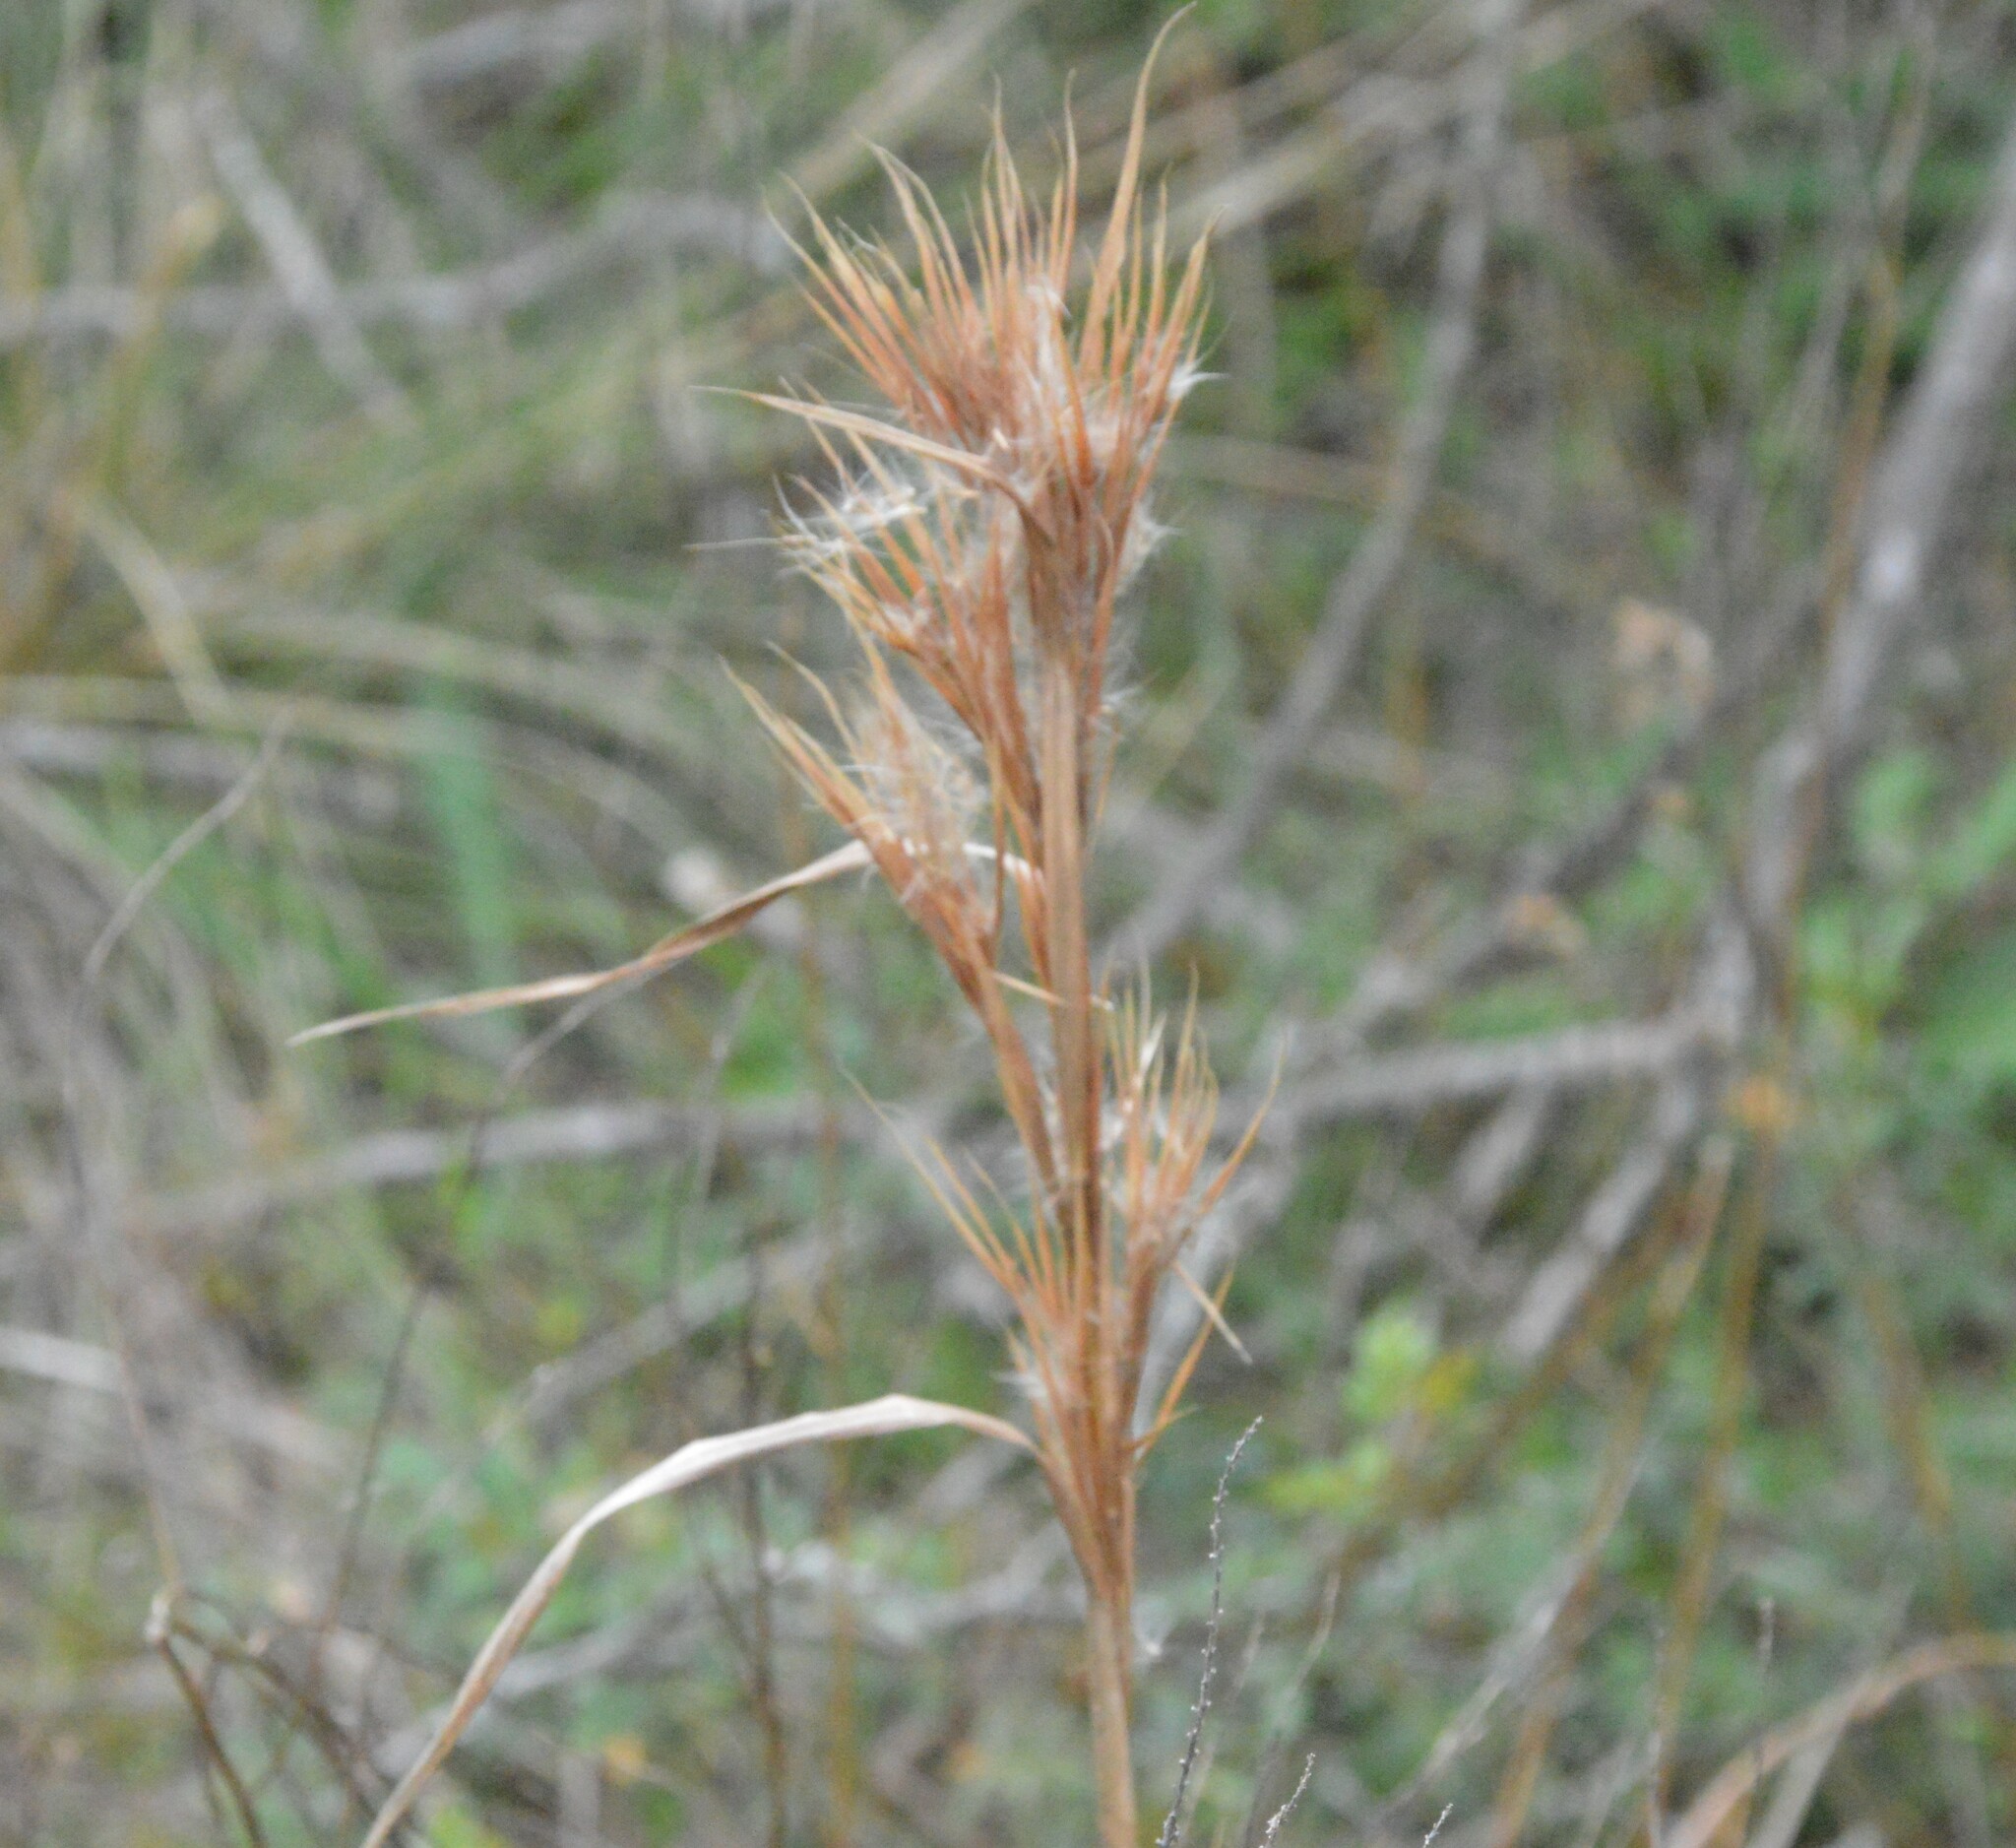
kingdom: Plantae
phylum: Tracheophyta
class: Liliopsida
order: Poales
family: Poaceae
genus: Andropogon
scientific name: Andropogon tenuispatheus
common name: Bushy bluestem
